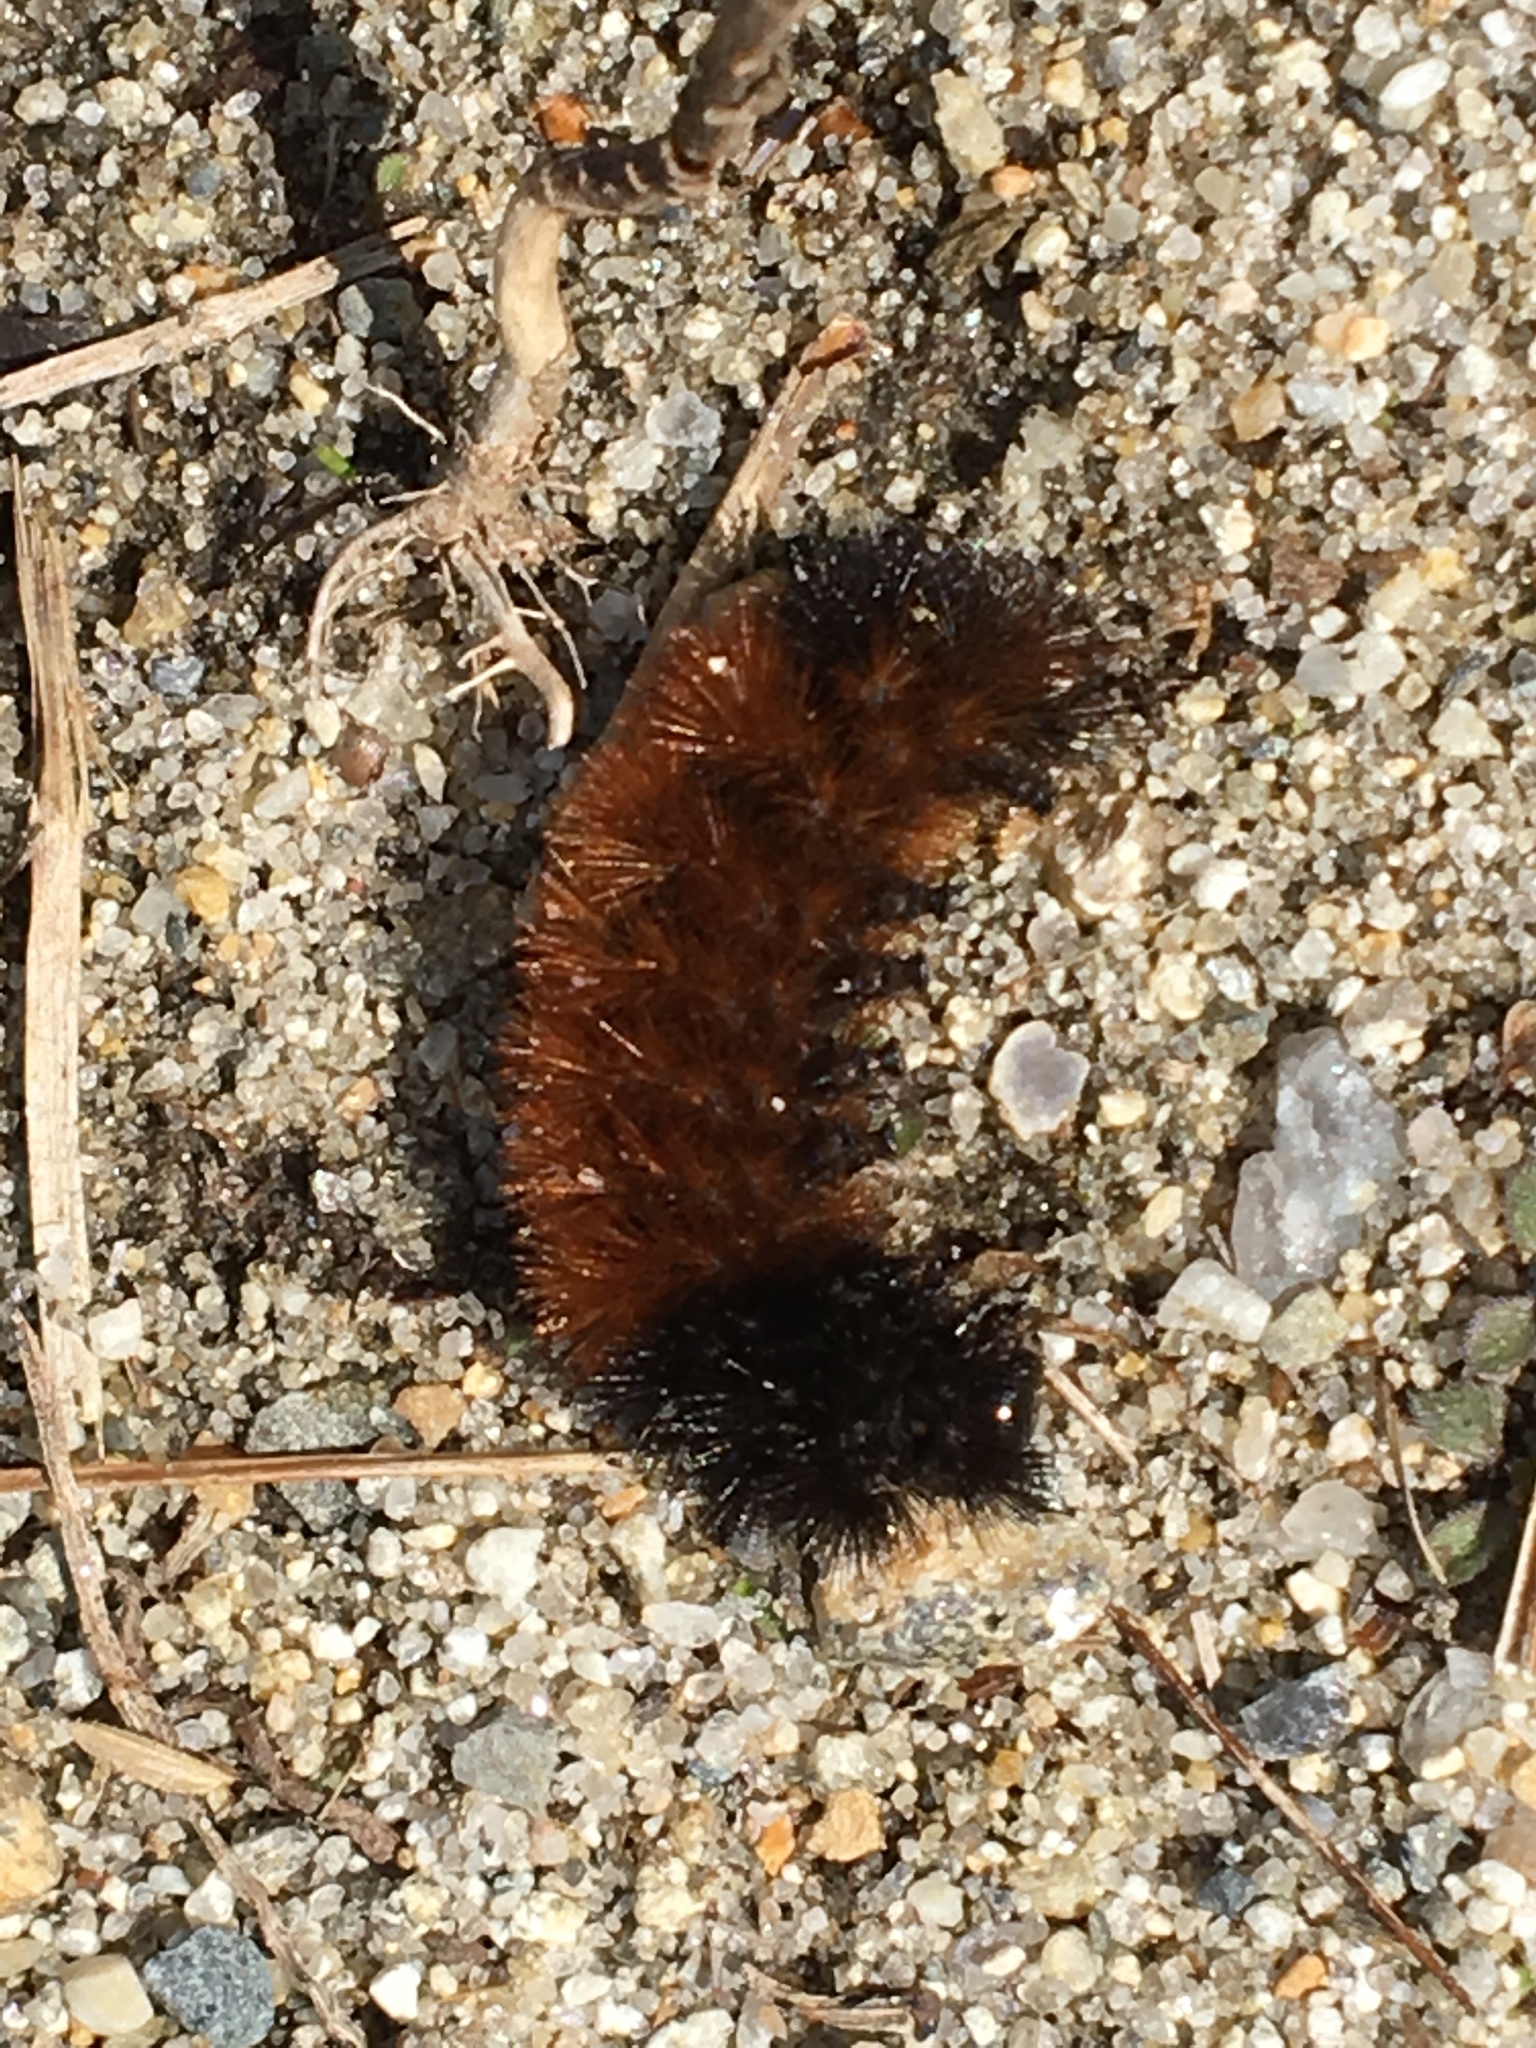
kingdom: Animalia
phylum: Arthropoda
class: Insecta
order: Lepidoptera
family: Erebidae
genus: Pyrrharctia
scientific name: Pyrrharctia isabella
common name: Isabella tiger moth
